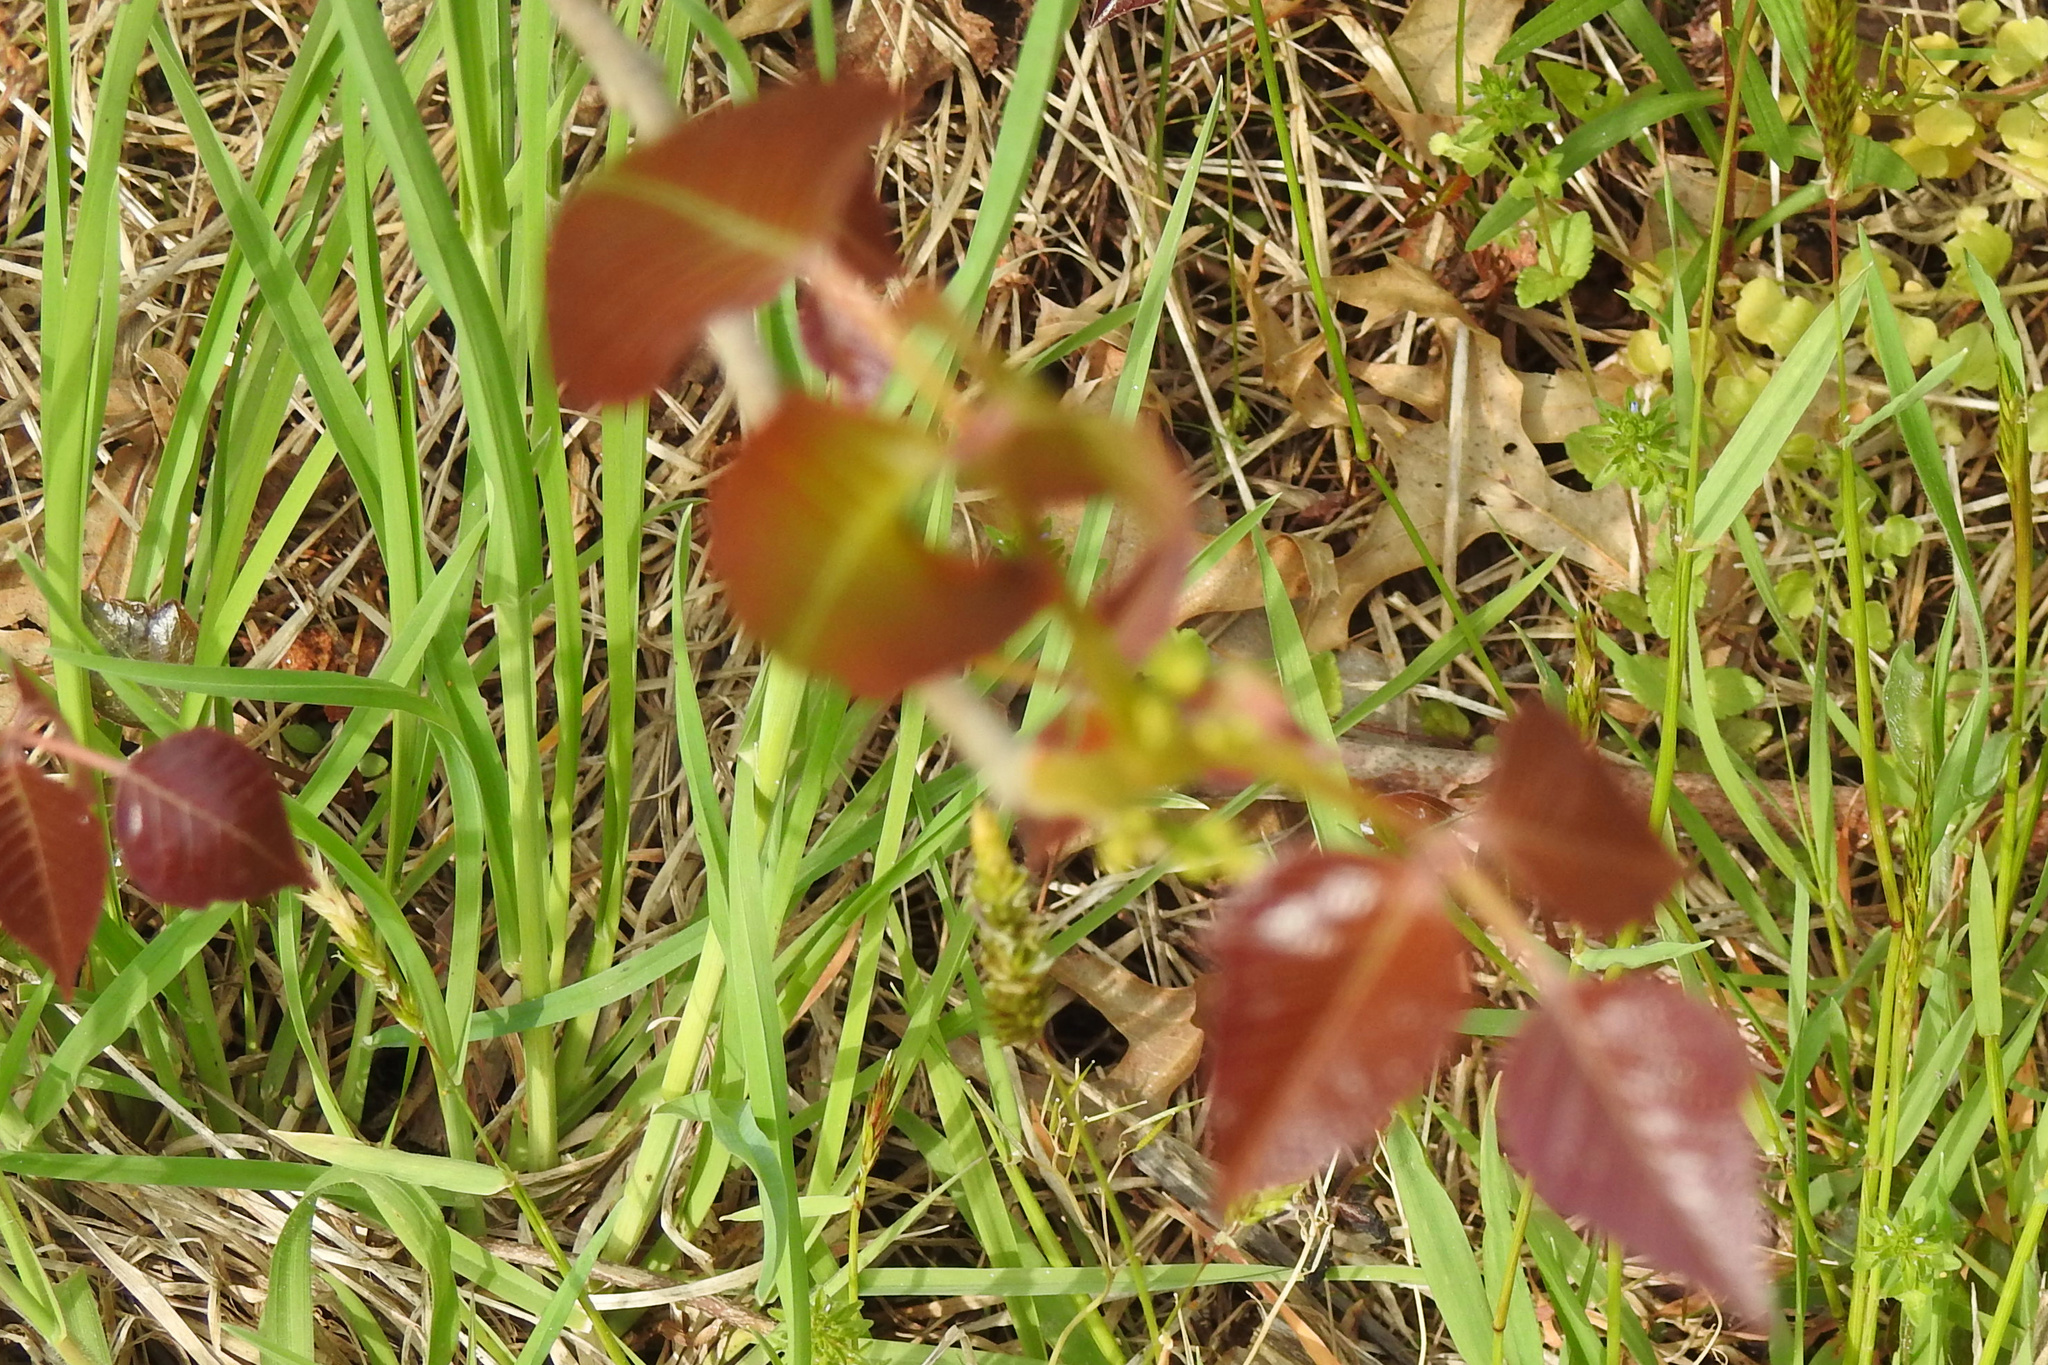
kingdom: Plantae
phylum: Tracheophyta
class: Magnoliopsida
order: Sapindales
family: Anacardiaceae
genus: Toxicodendron
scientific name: Toxicodendron radicans
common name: Poison ivy
